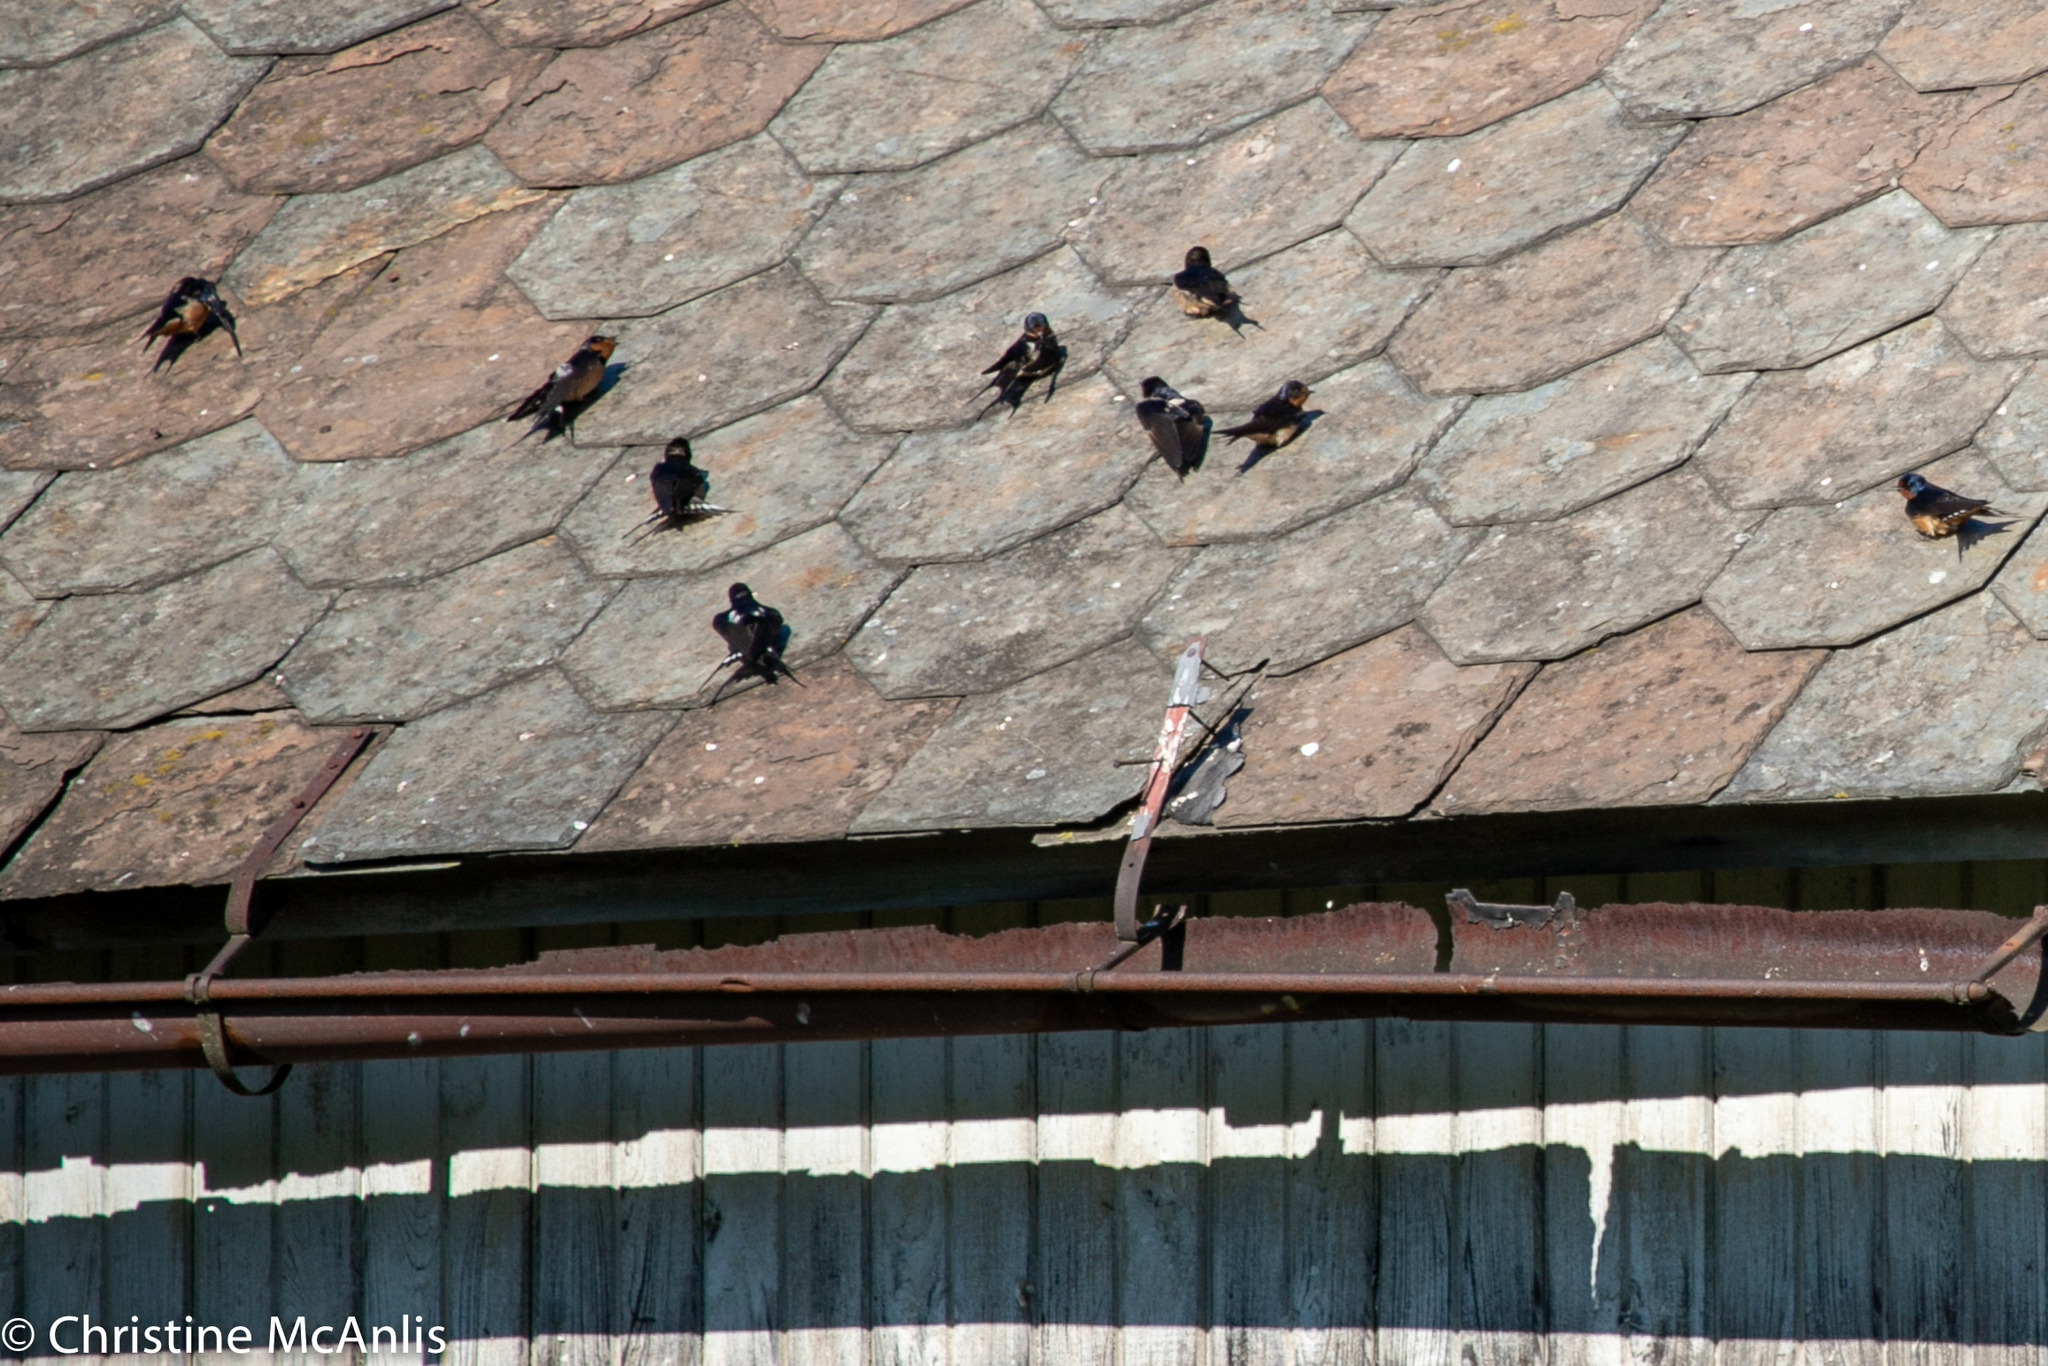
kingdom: Animalia
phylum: Chordata
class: Aves
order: Passeriformes
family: Hirundinidae
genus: Hirundo
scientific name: Hirundo rustica
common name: Barn swallow
